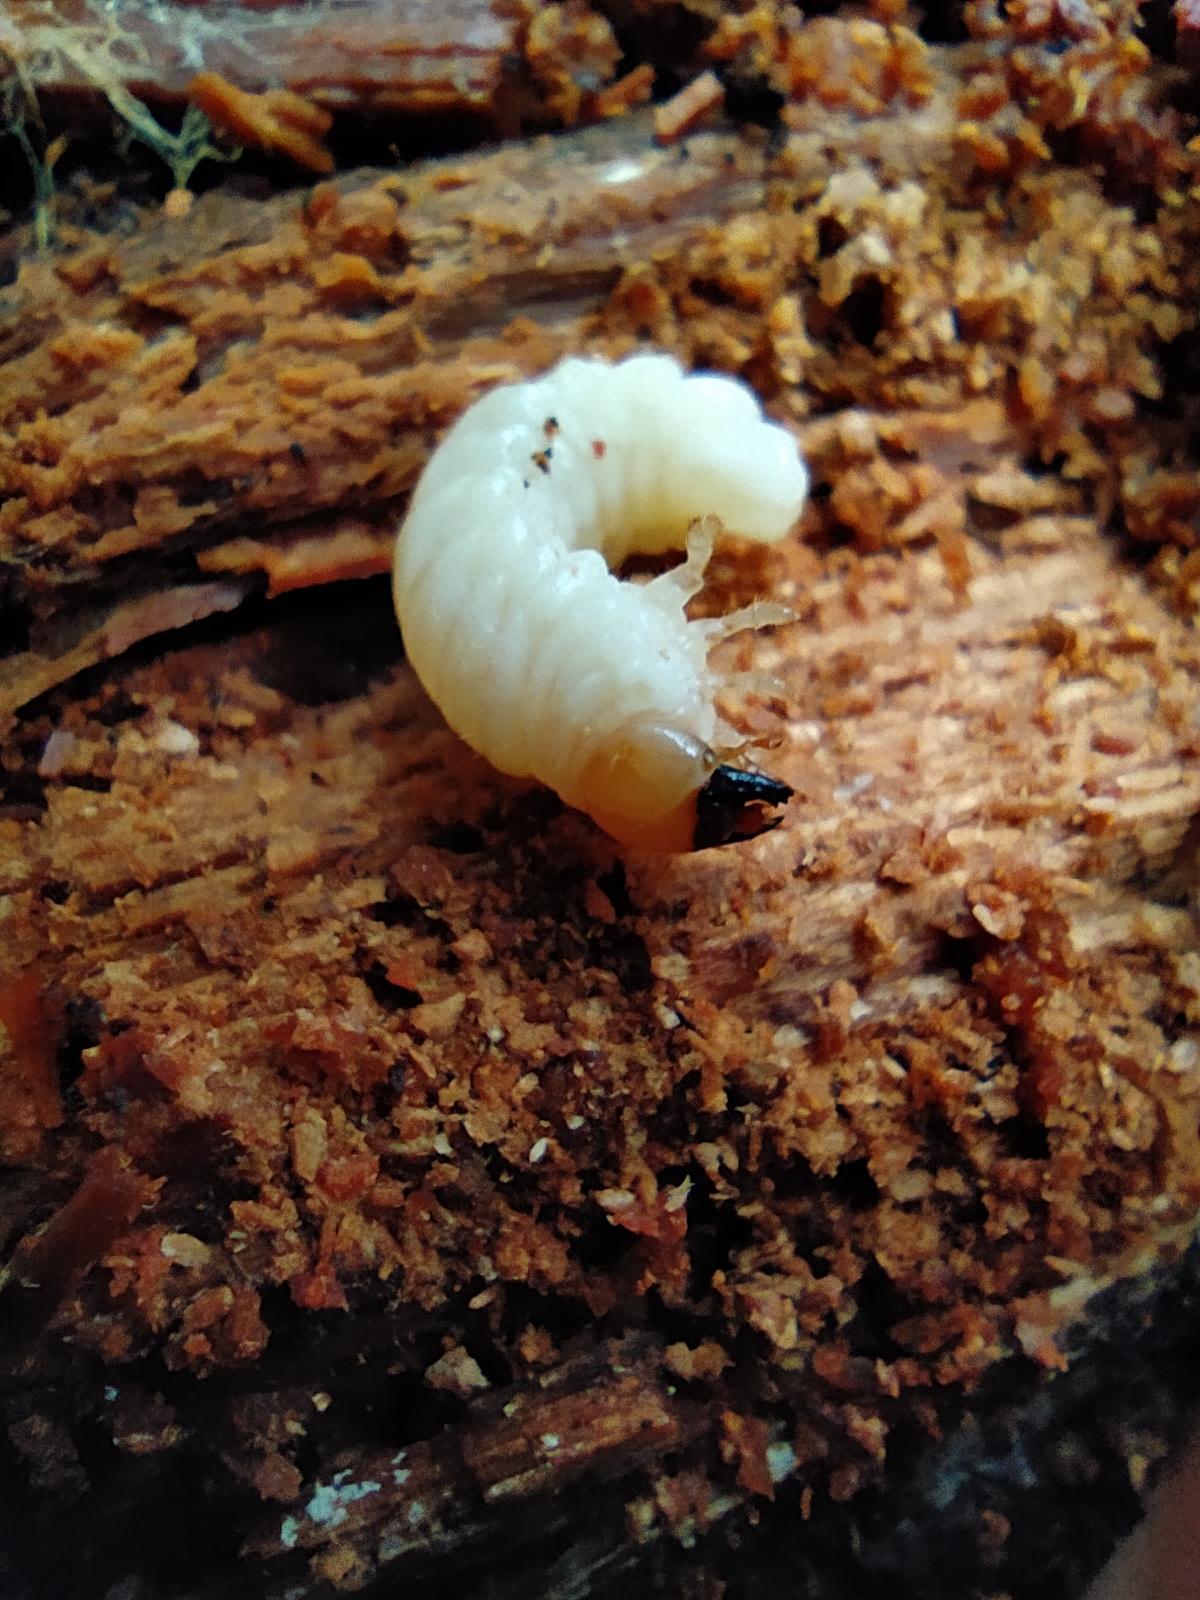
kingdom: Animalia
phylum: Arthropoda
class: Insecta
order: Coleoptera
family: Lucanidae
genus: Ceruchus
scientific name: Ceruchus chrysomelinus
